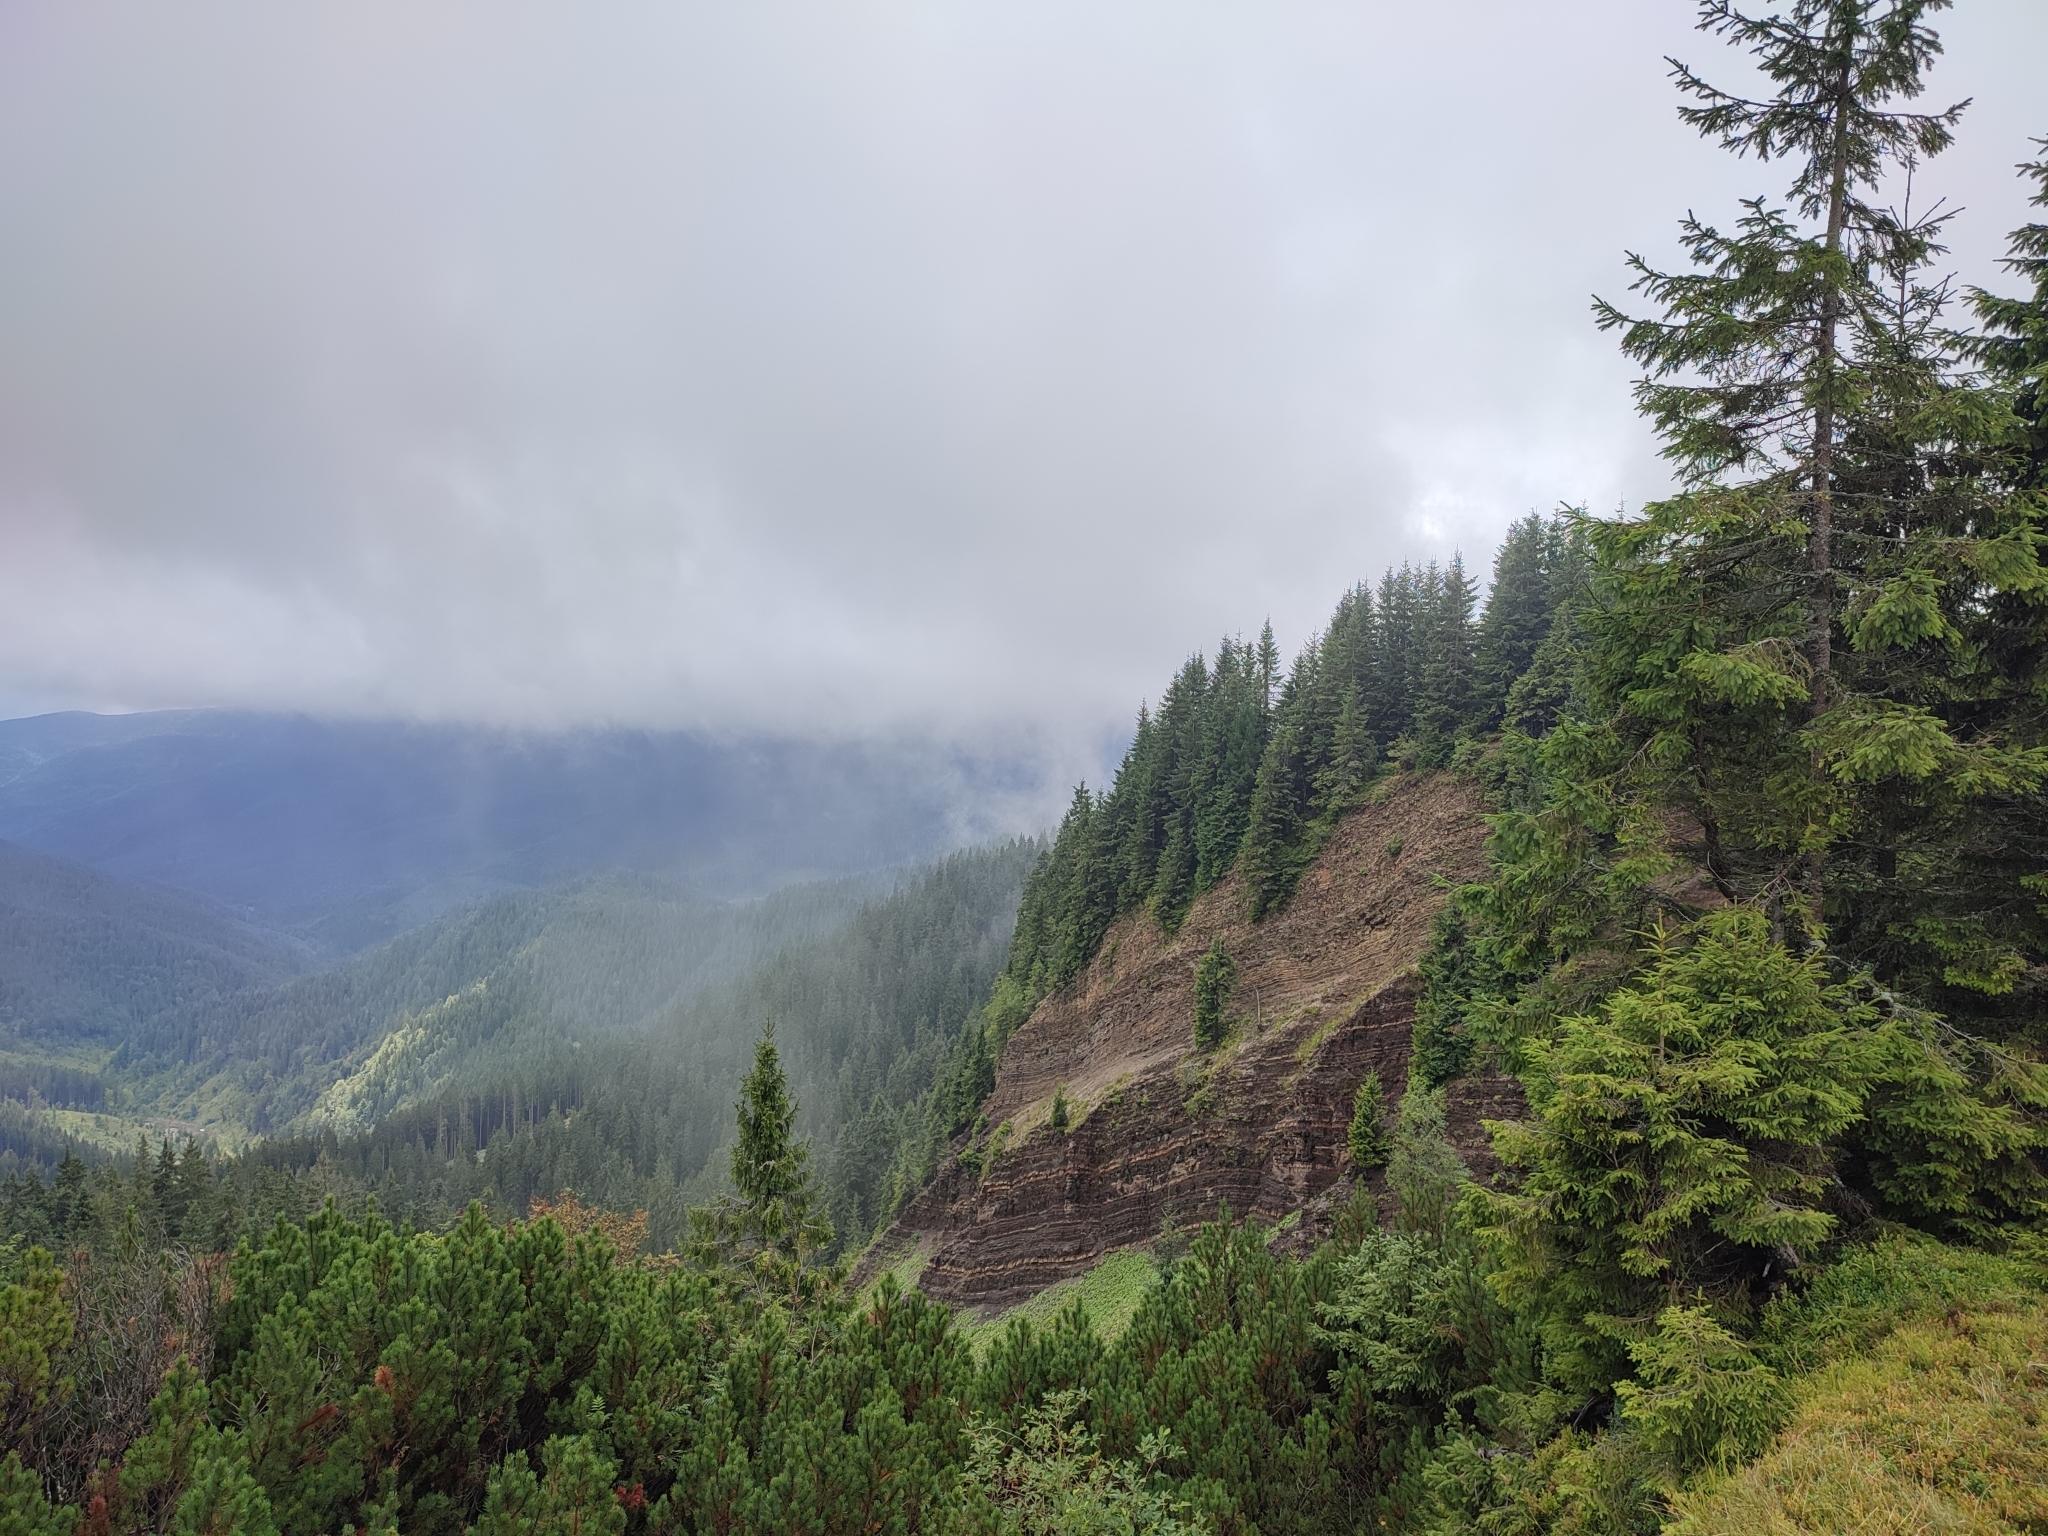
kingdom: Plantae
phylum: Tracheophyta
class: Pinopsida
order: Pinales
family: Pinaceae
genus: Picea
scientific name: Picea abies
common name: Norway spruce
